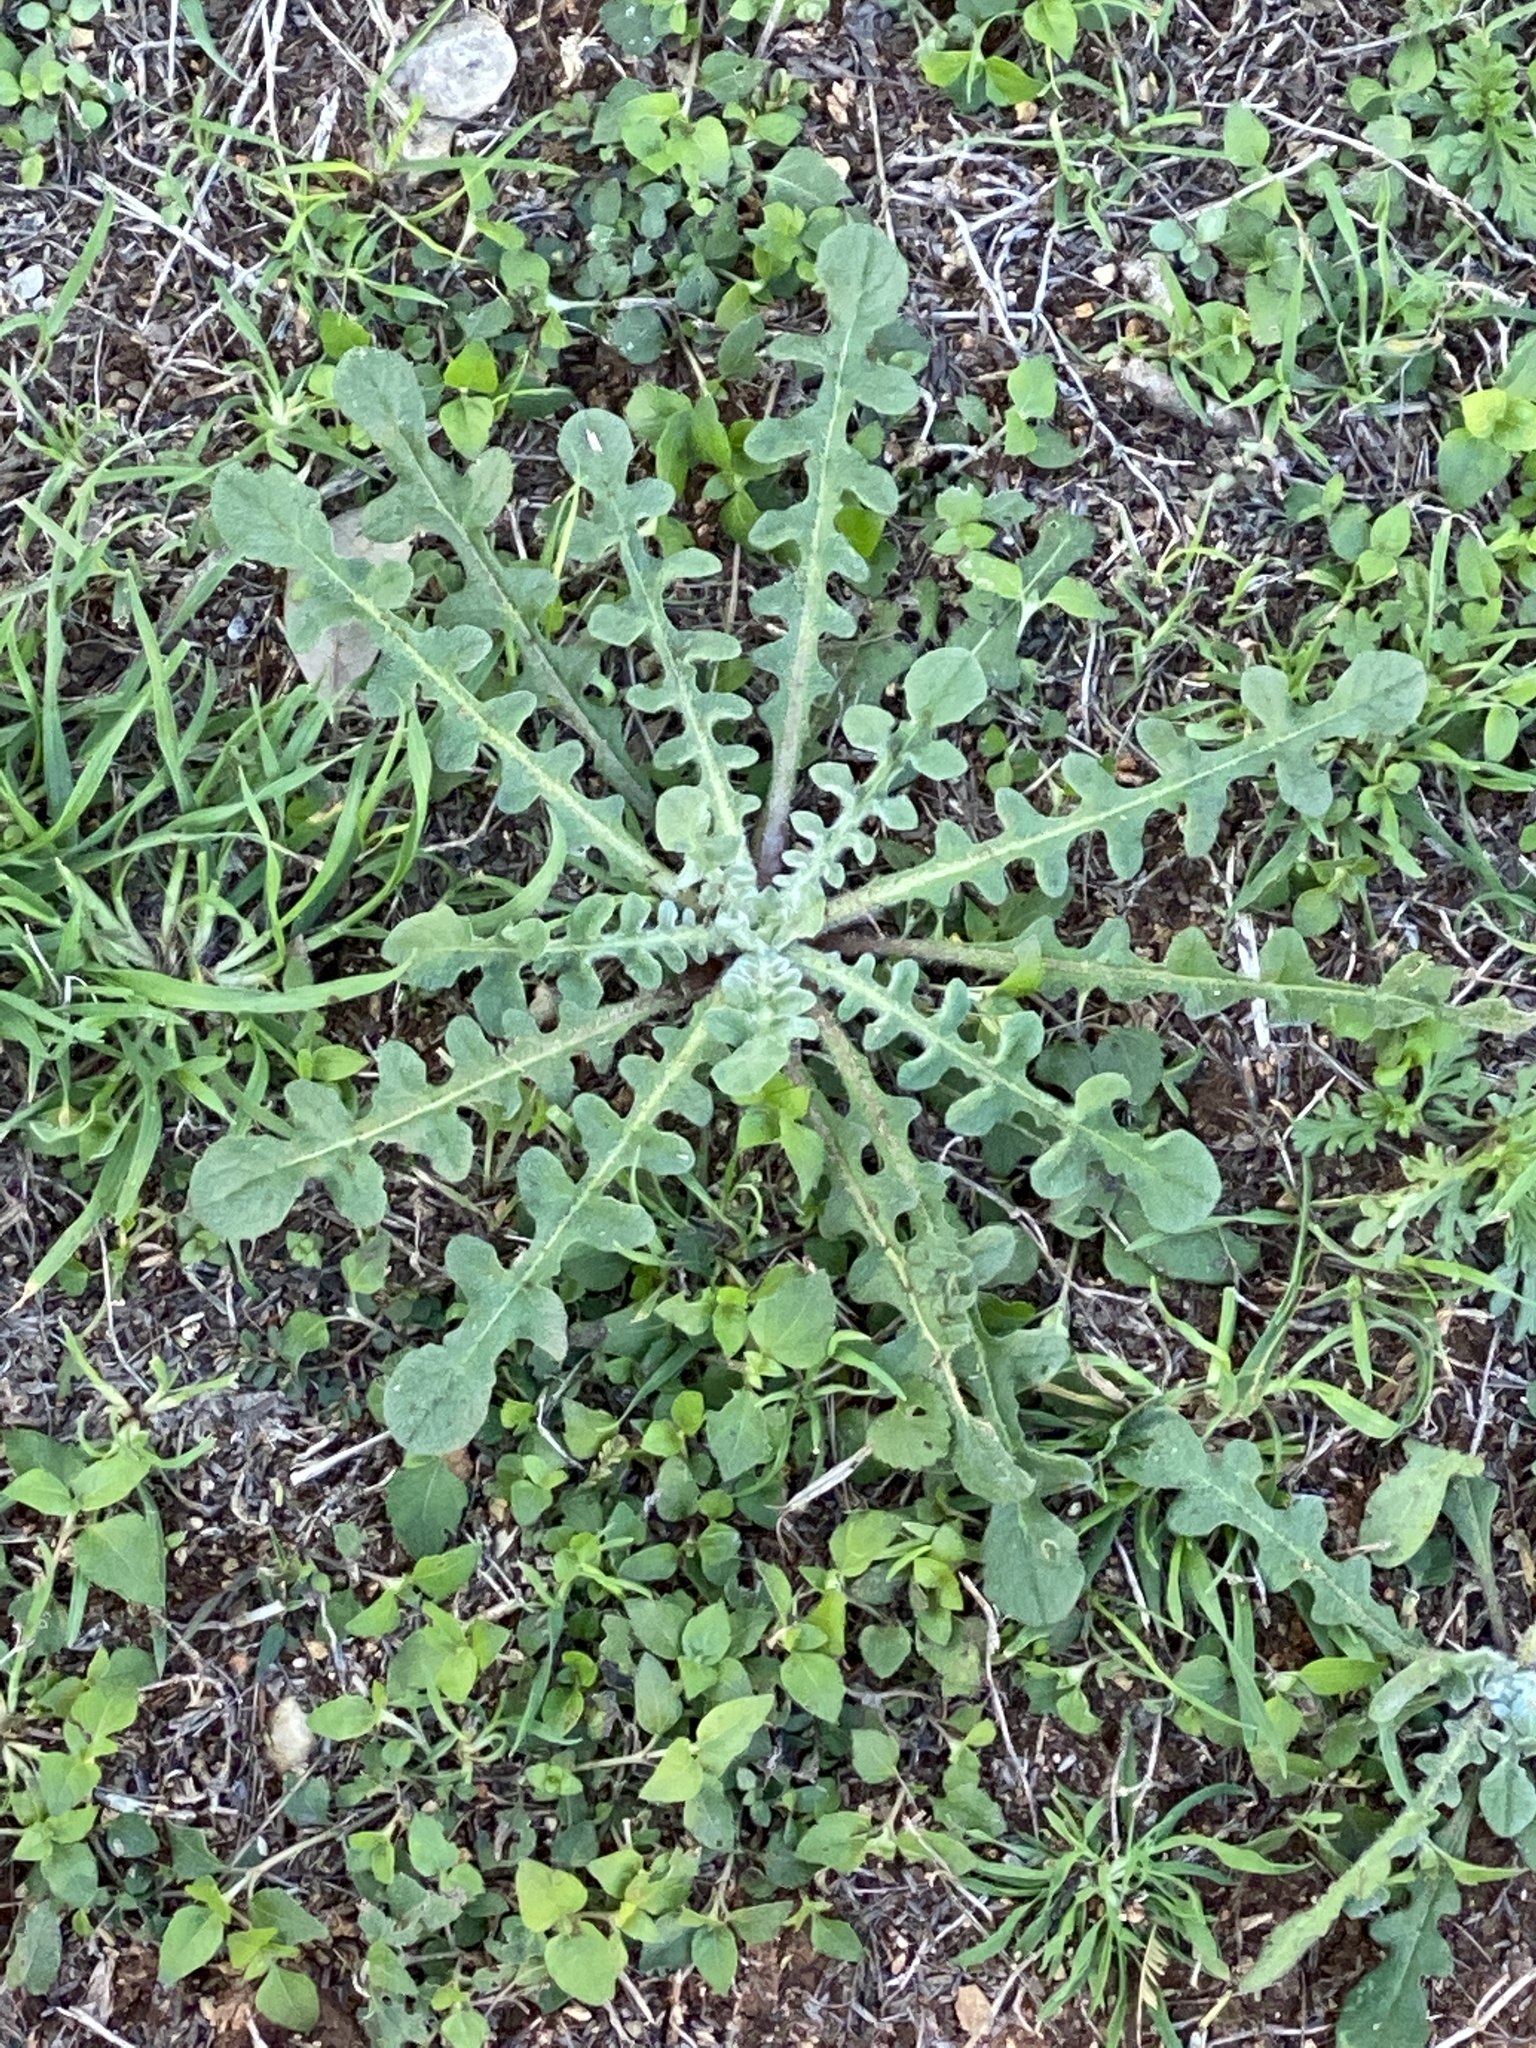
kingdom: Plantae
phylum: Tracheophyta
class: Magnoliopsida
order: Asterales
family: Asteraceae
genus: Centaurea
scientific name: Centaurea melitensis
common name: Maltese star-thistle
